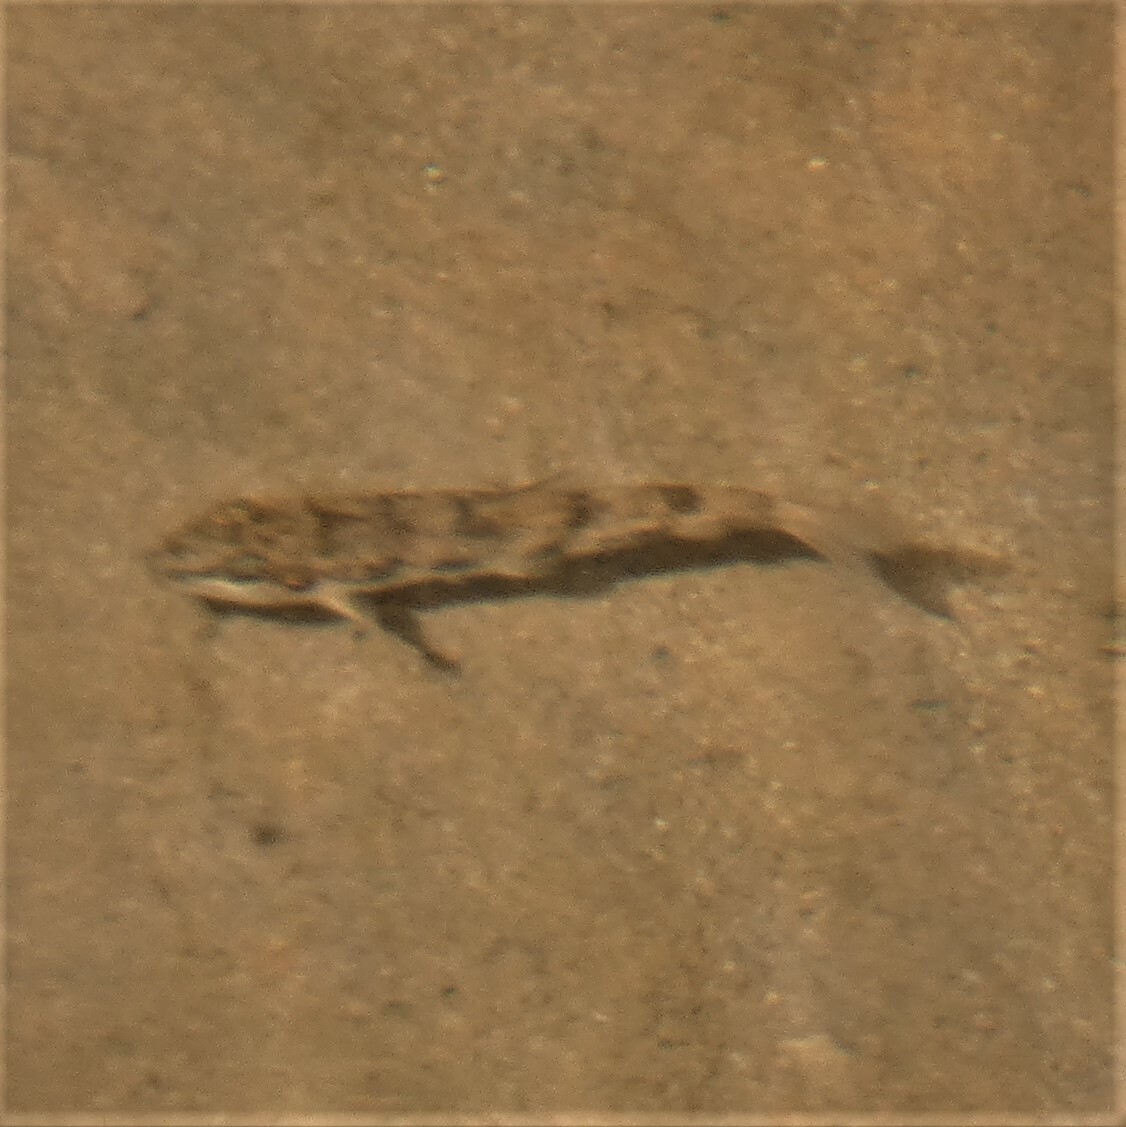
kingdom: Animalia
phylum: Chordata
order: Cypriniformes
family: Catostomidae
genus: Hypentelium
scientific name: Hypentelium nigricans
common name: Northern hog sucker
